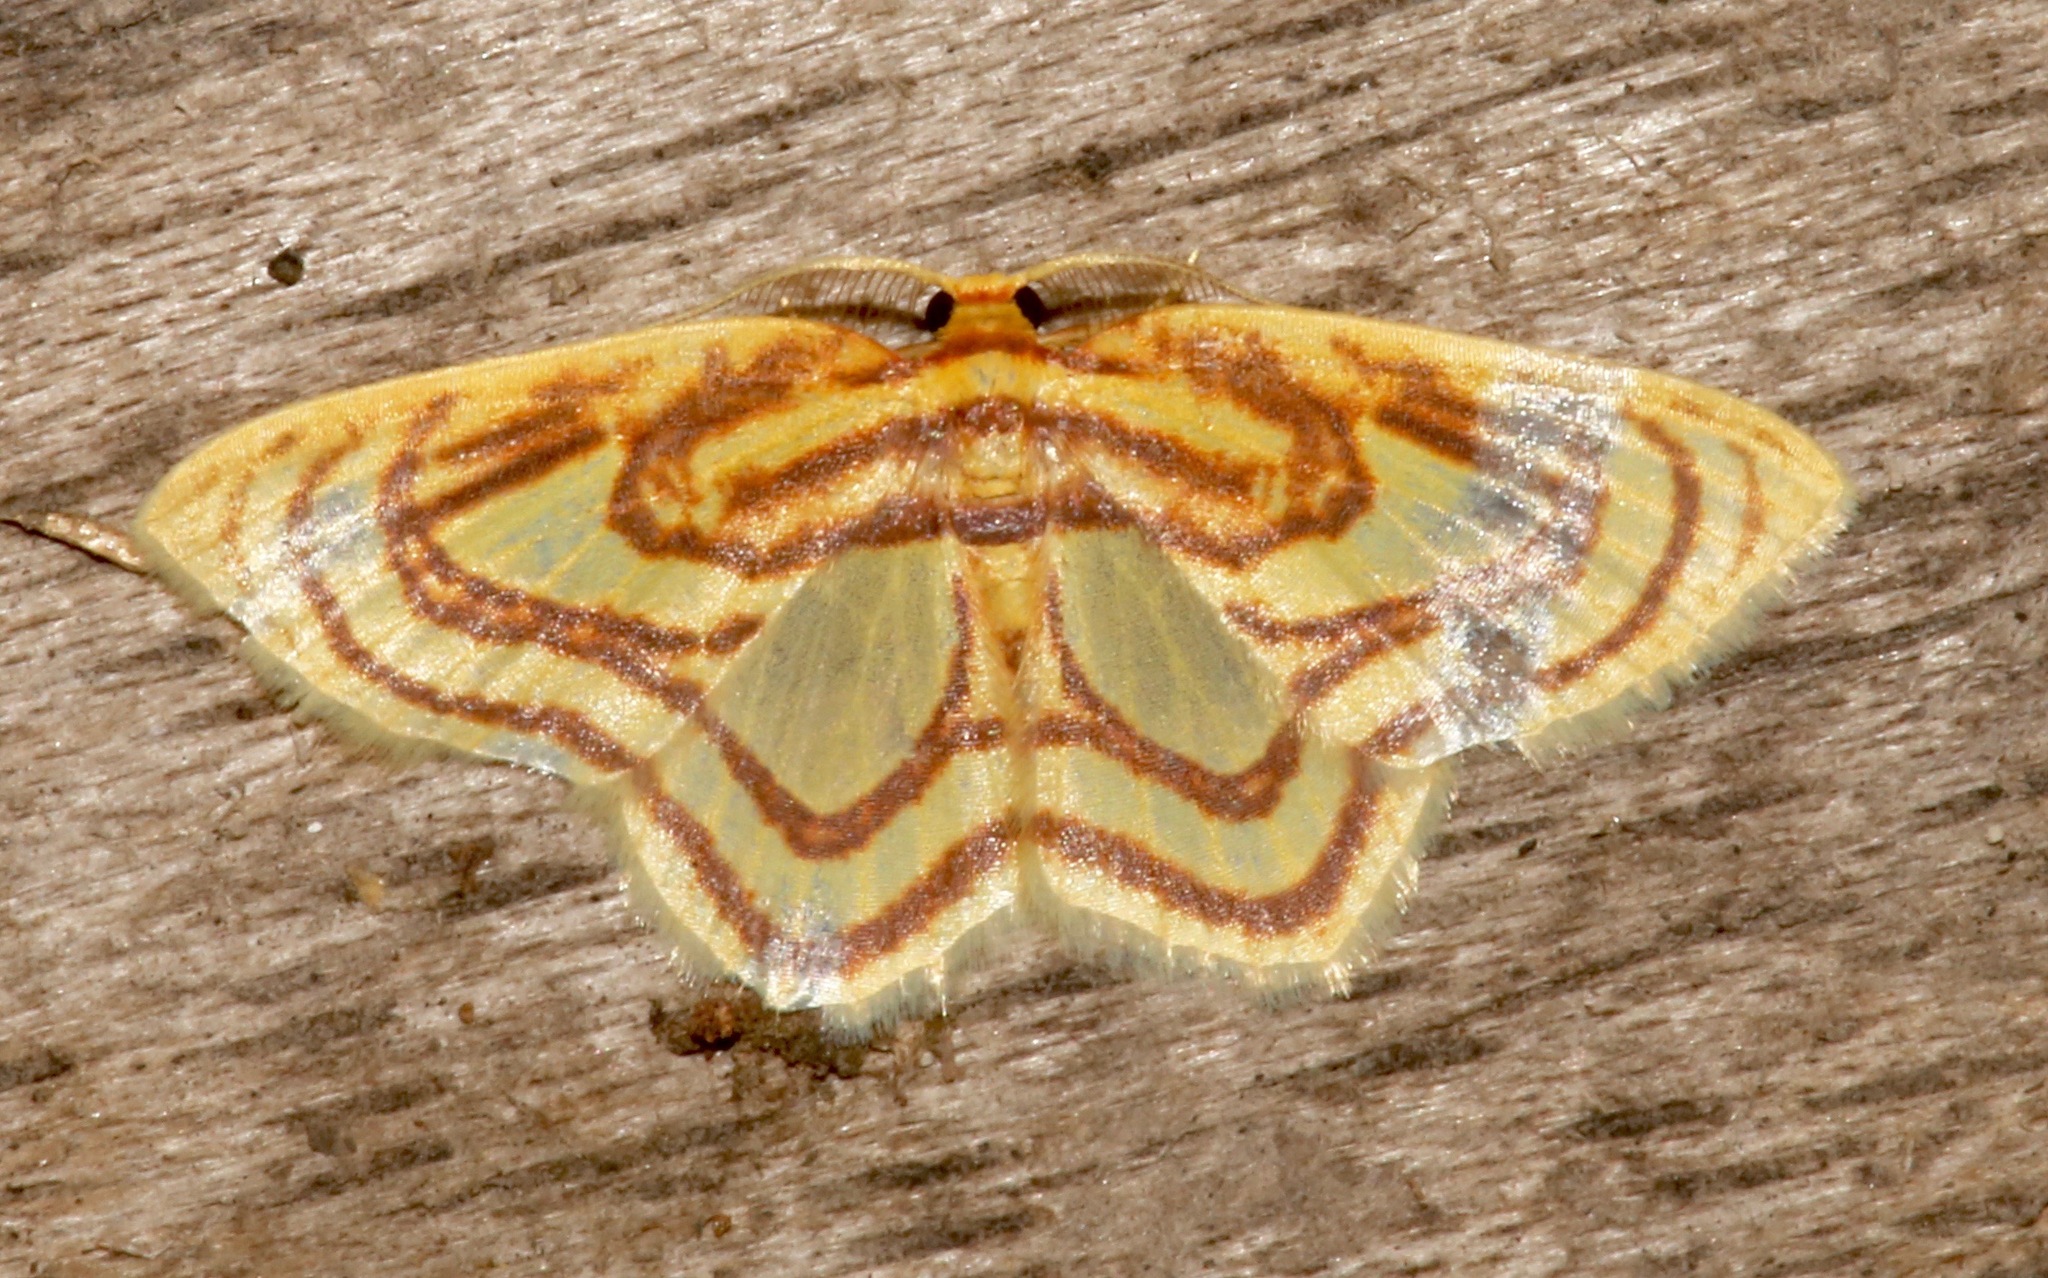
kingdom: Animalia
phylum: Arthropoda
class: Insecta
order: Lepidoptera
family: Geometridae
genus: Eois
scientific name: Eois isographata
